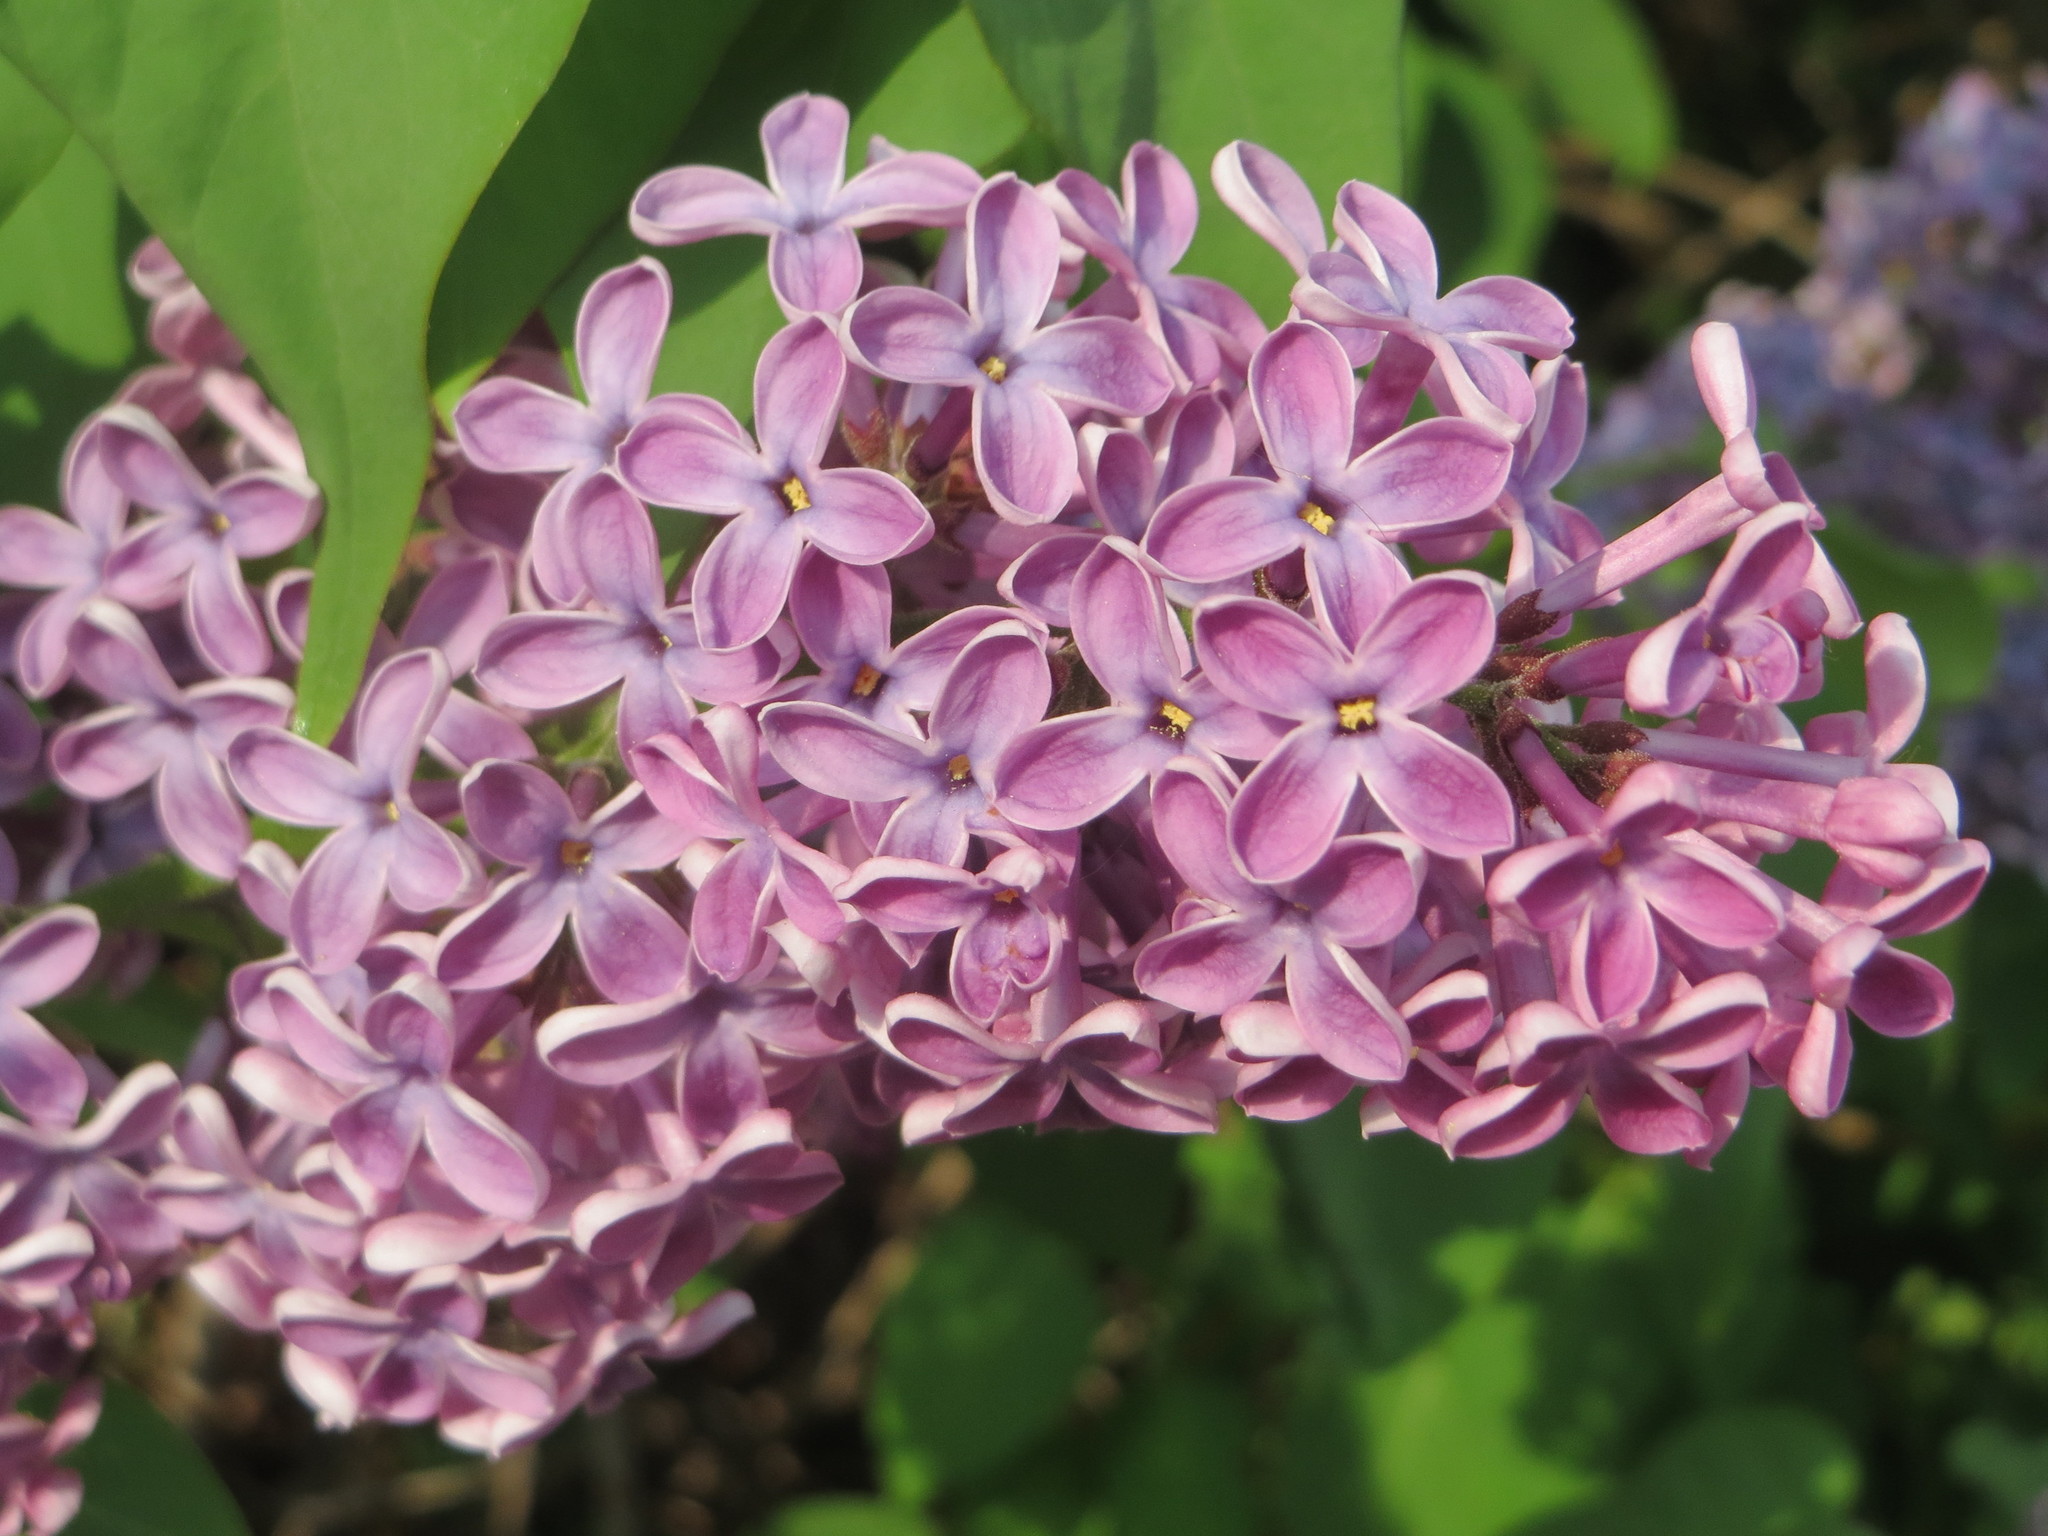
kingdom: Plantae
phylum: Tracheophyta
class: Magnoliopsida
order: Lamiales
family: Oleaceae
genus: Syringa
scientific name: Syringa vulgaris
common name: Common lilac
